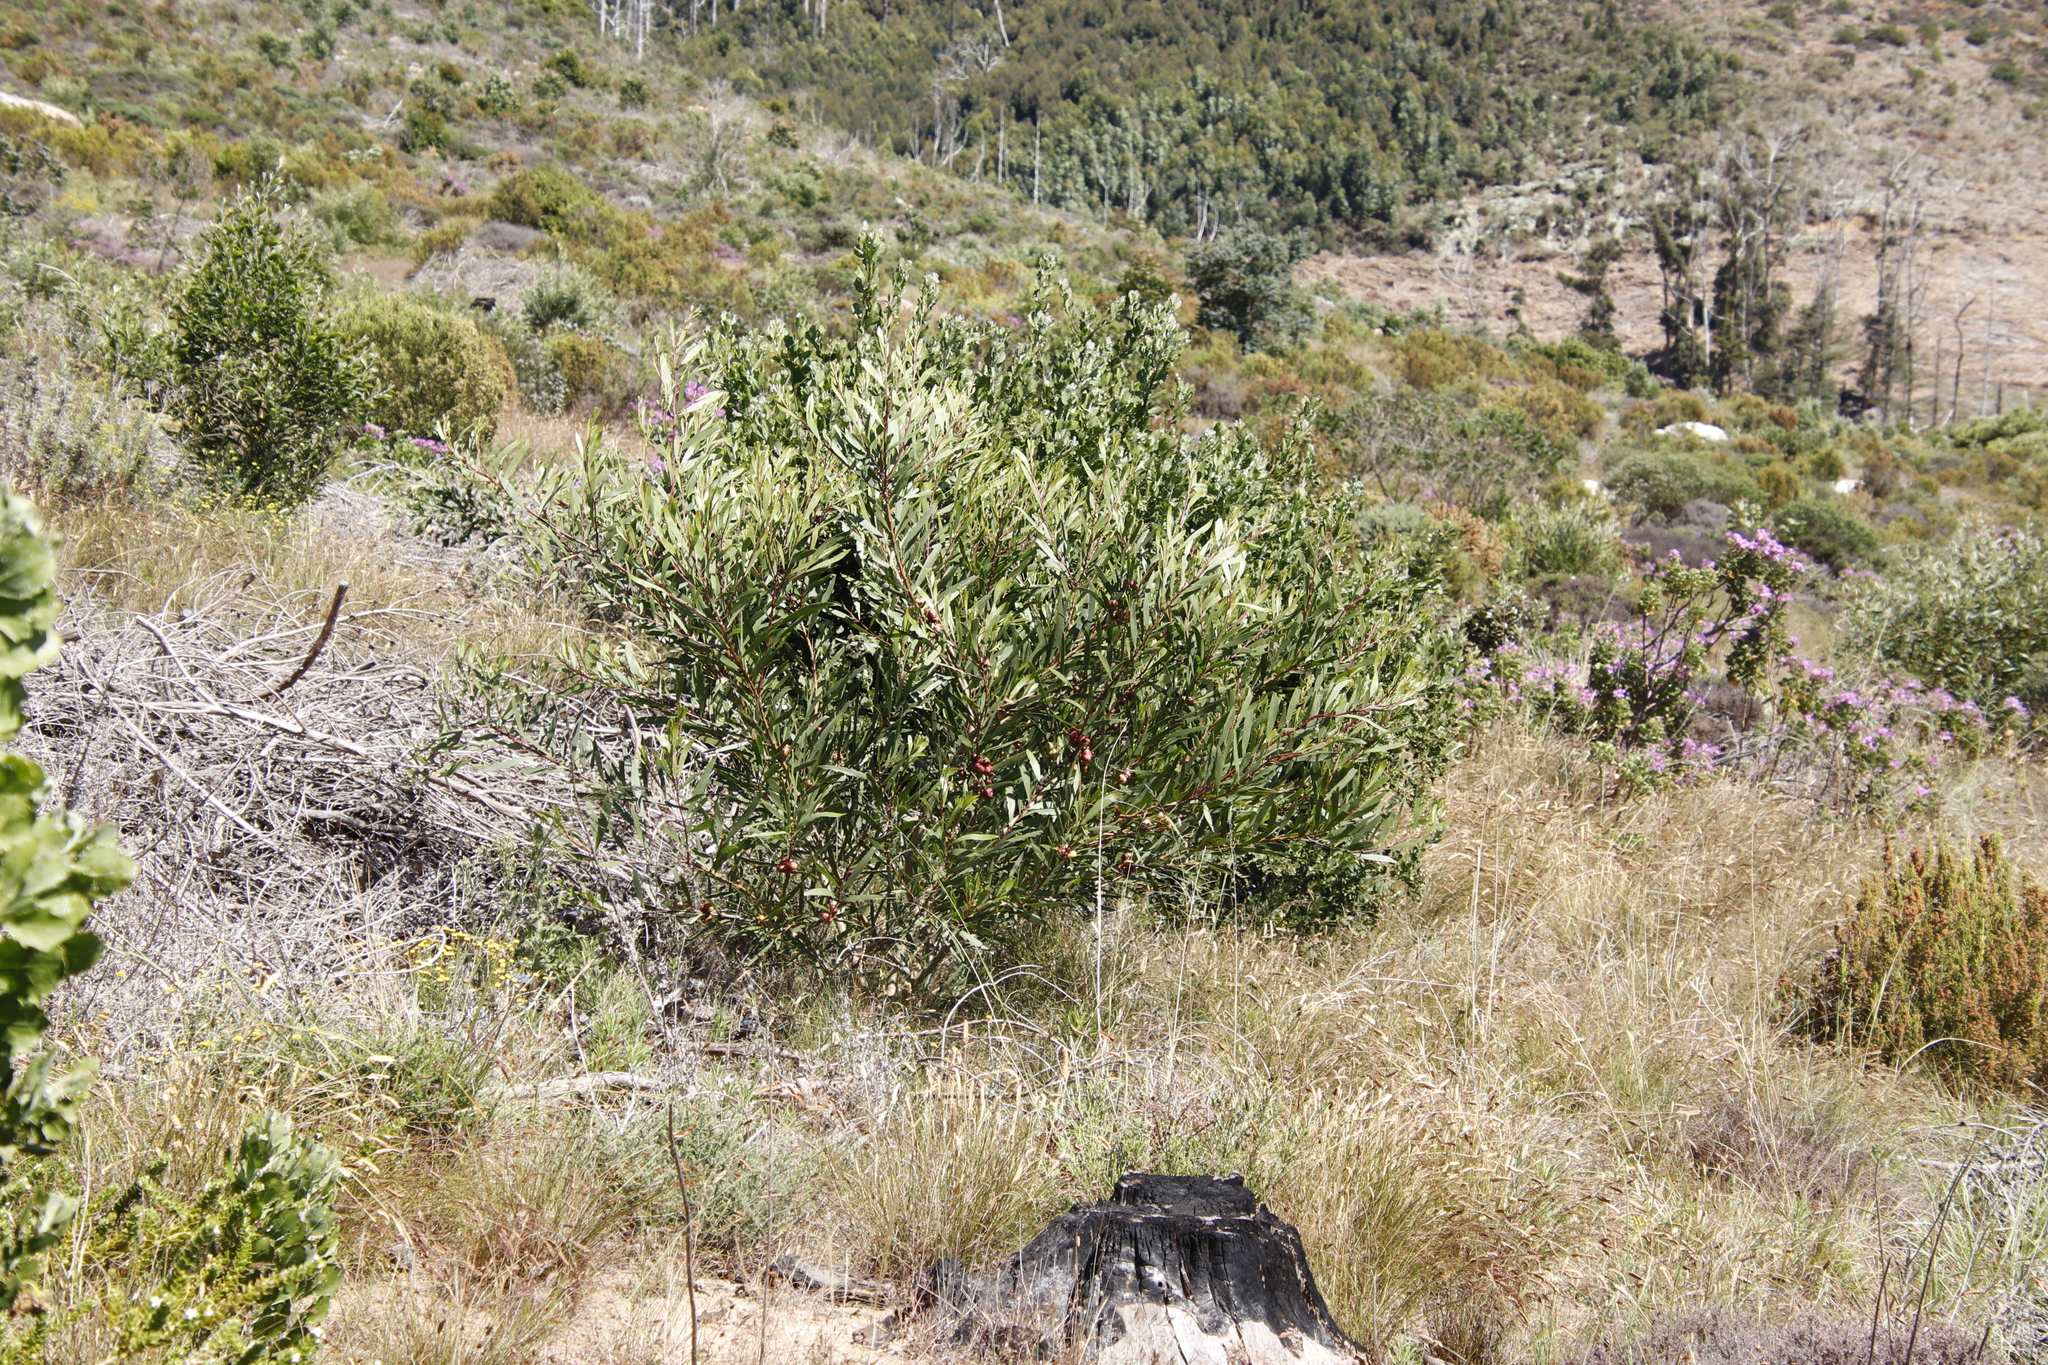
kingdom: Plantae
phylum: Tracheophyta
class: Magnoliopsida
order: Fabales
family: Fabaceae
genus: Acacia
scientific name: Acacia longifolia
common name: Sydney golden wattle
